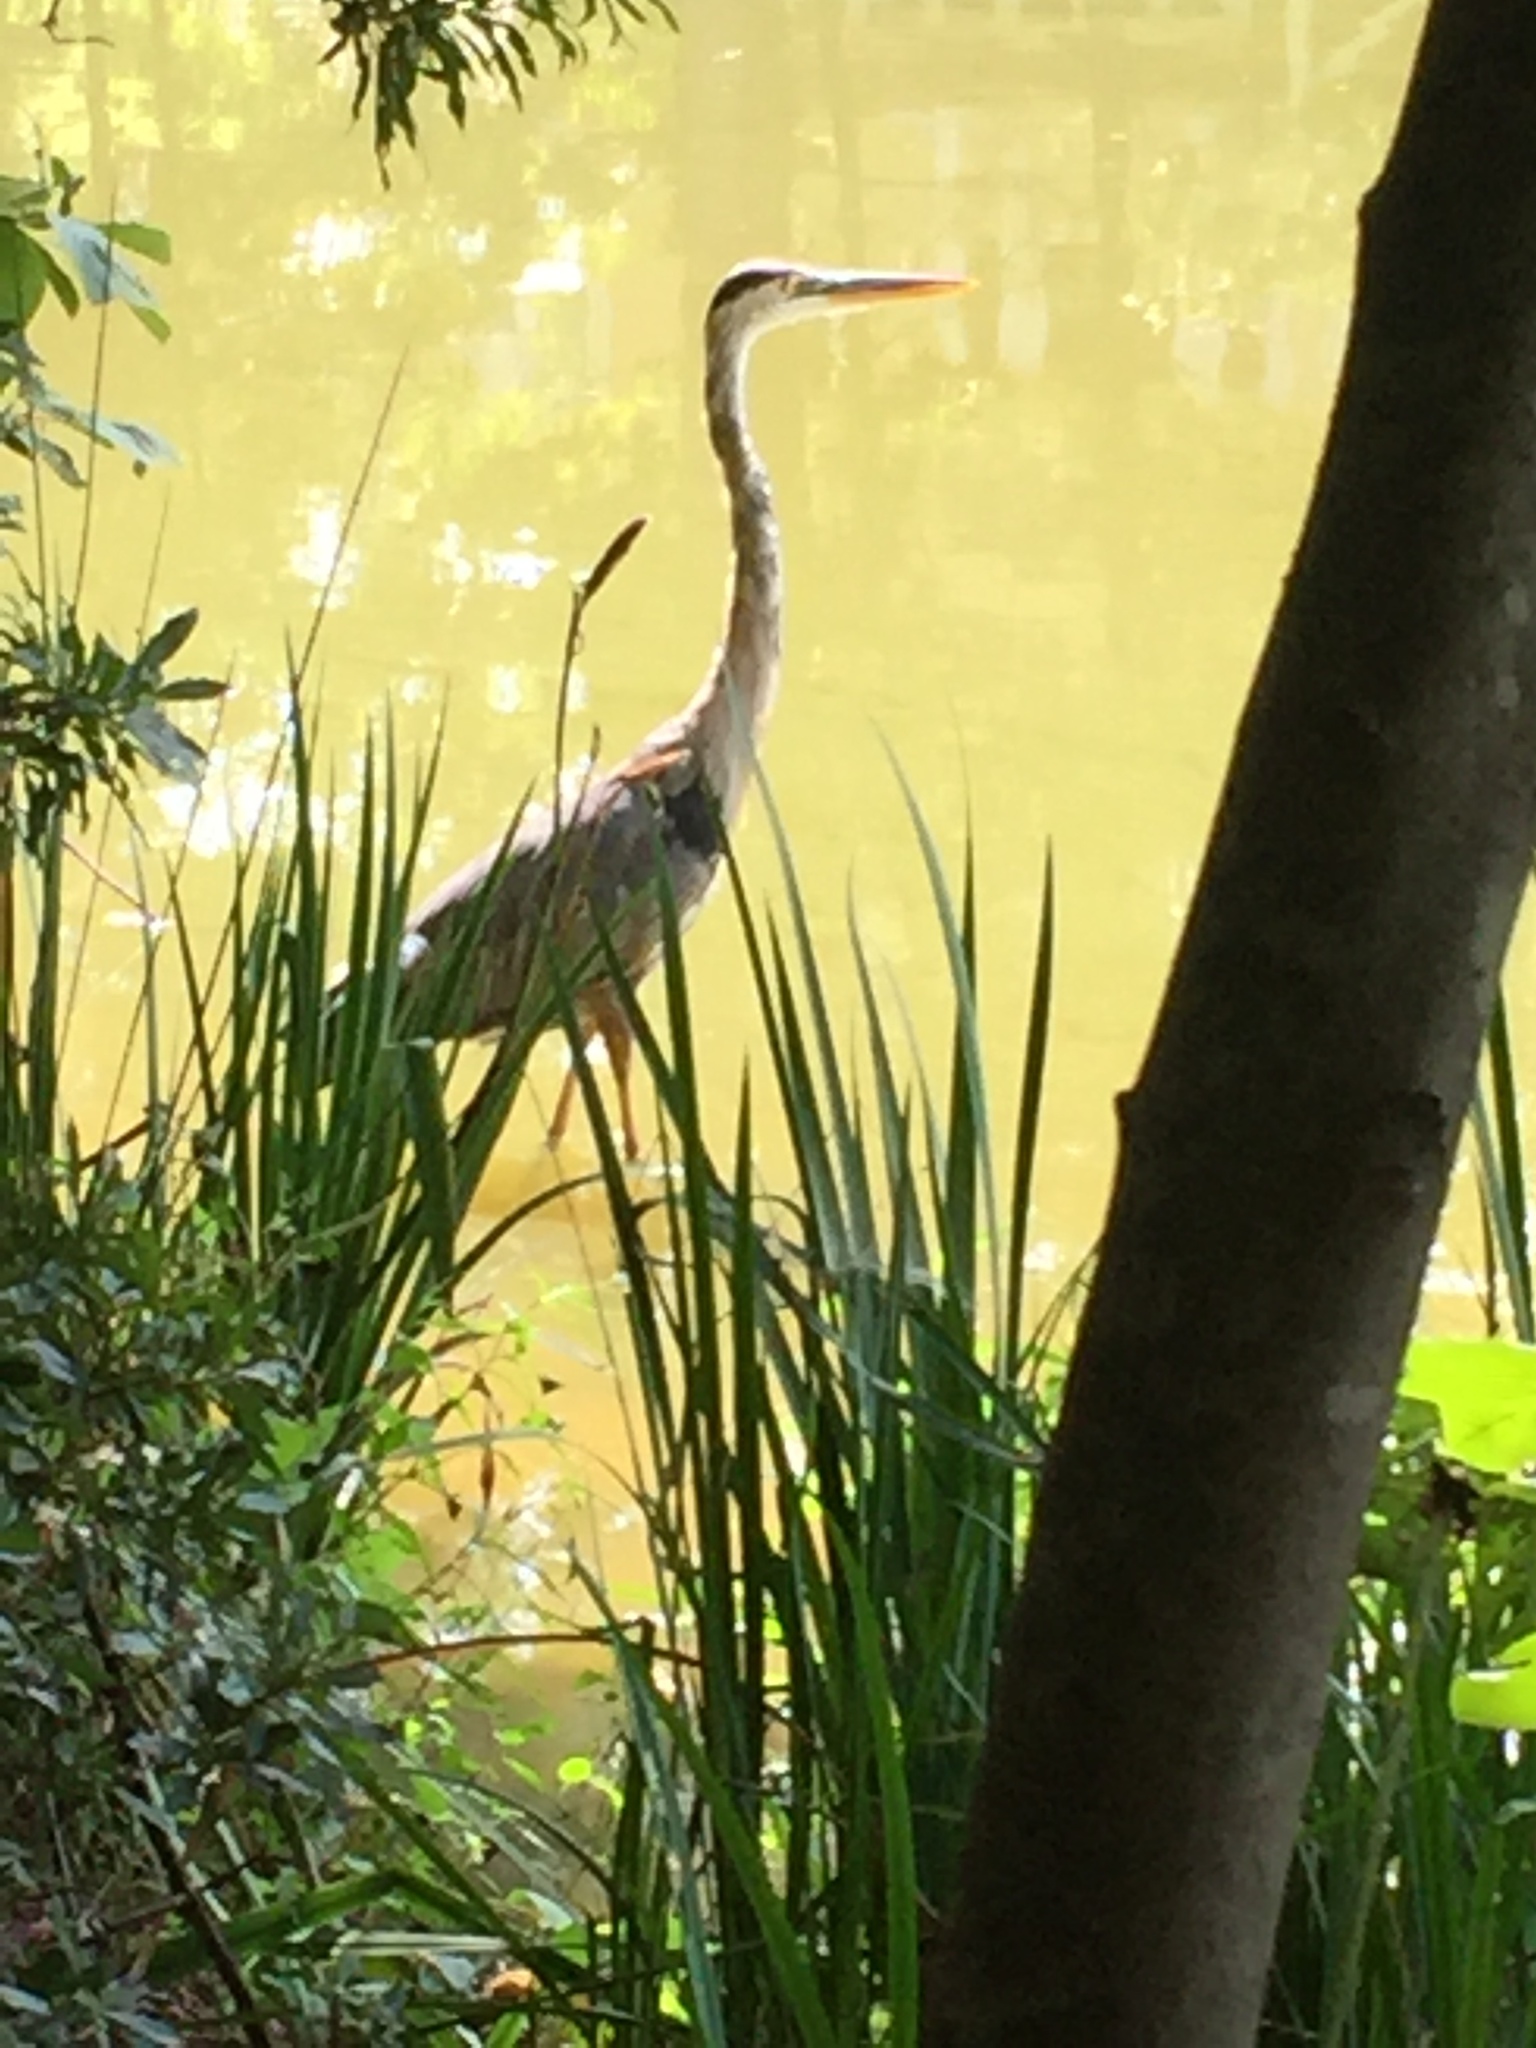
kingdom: Animalia
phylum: Chordata
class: Aves
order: Pelecaniformes
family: Ardeidae
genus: Ardea
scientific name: Ardea herodias
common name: Great blue heron
